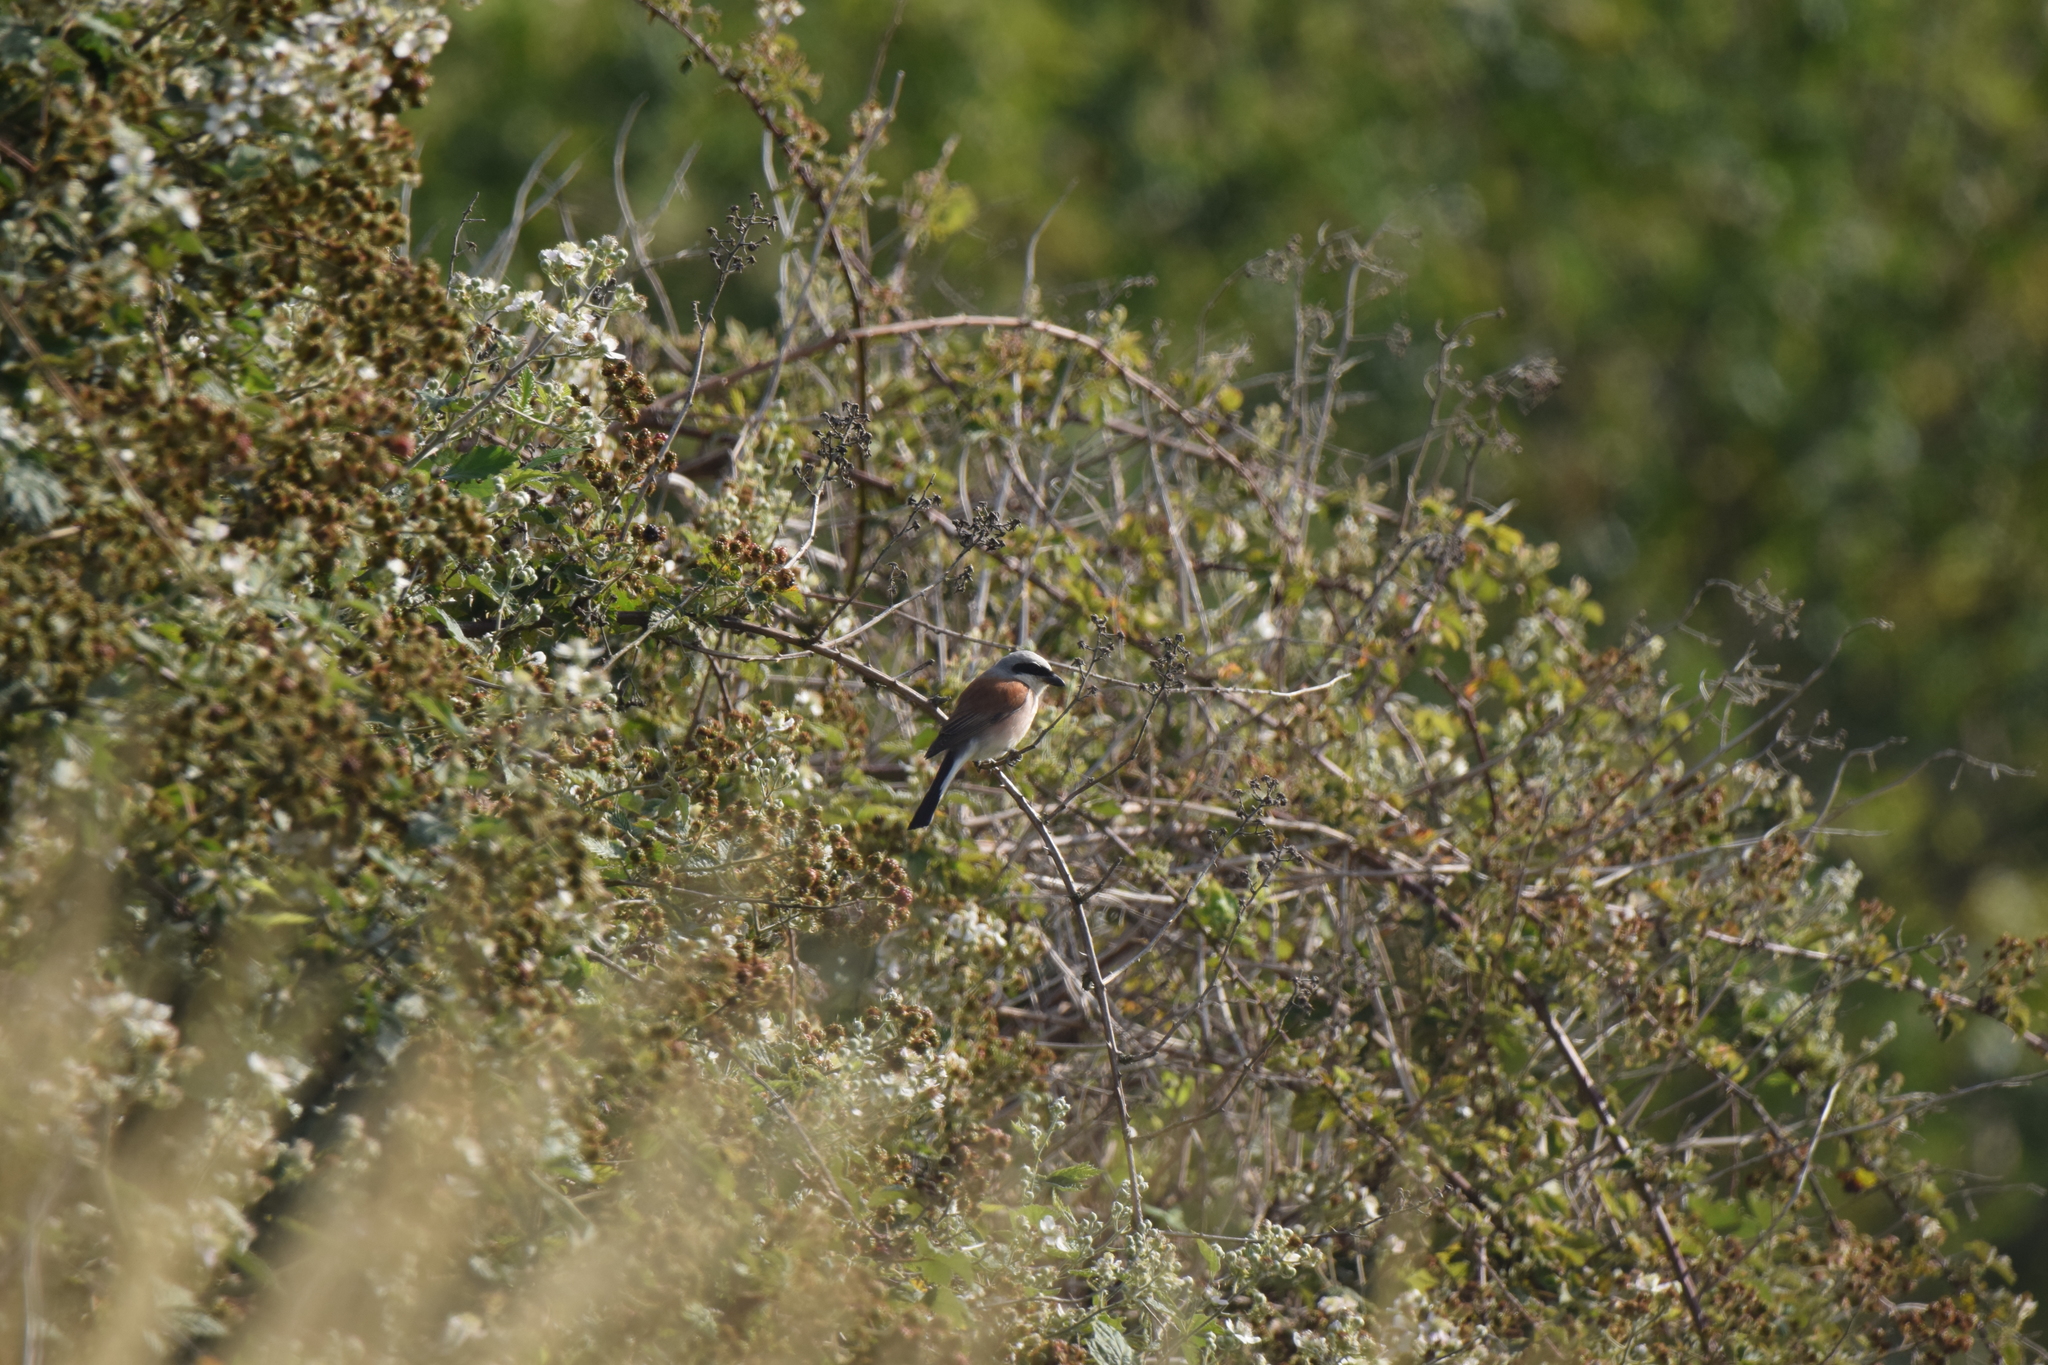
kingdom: Animalia
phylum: Chordata
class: Aves
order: Passeriformes
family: Laniidae
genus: Lanius
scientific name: Lanius collurio
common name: Red-backed shrike
